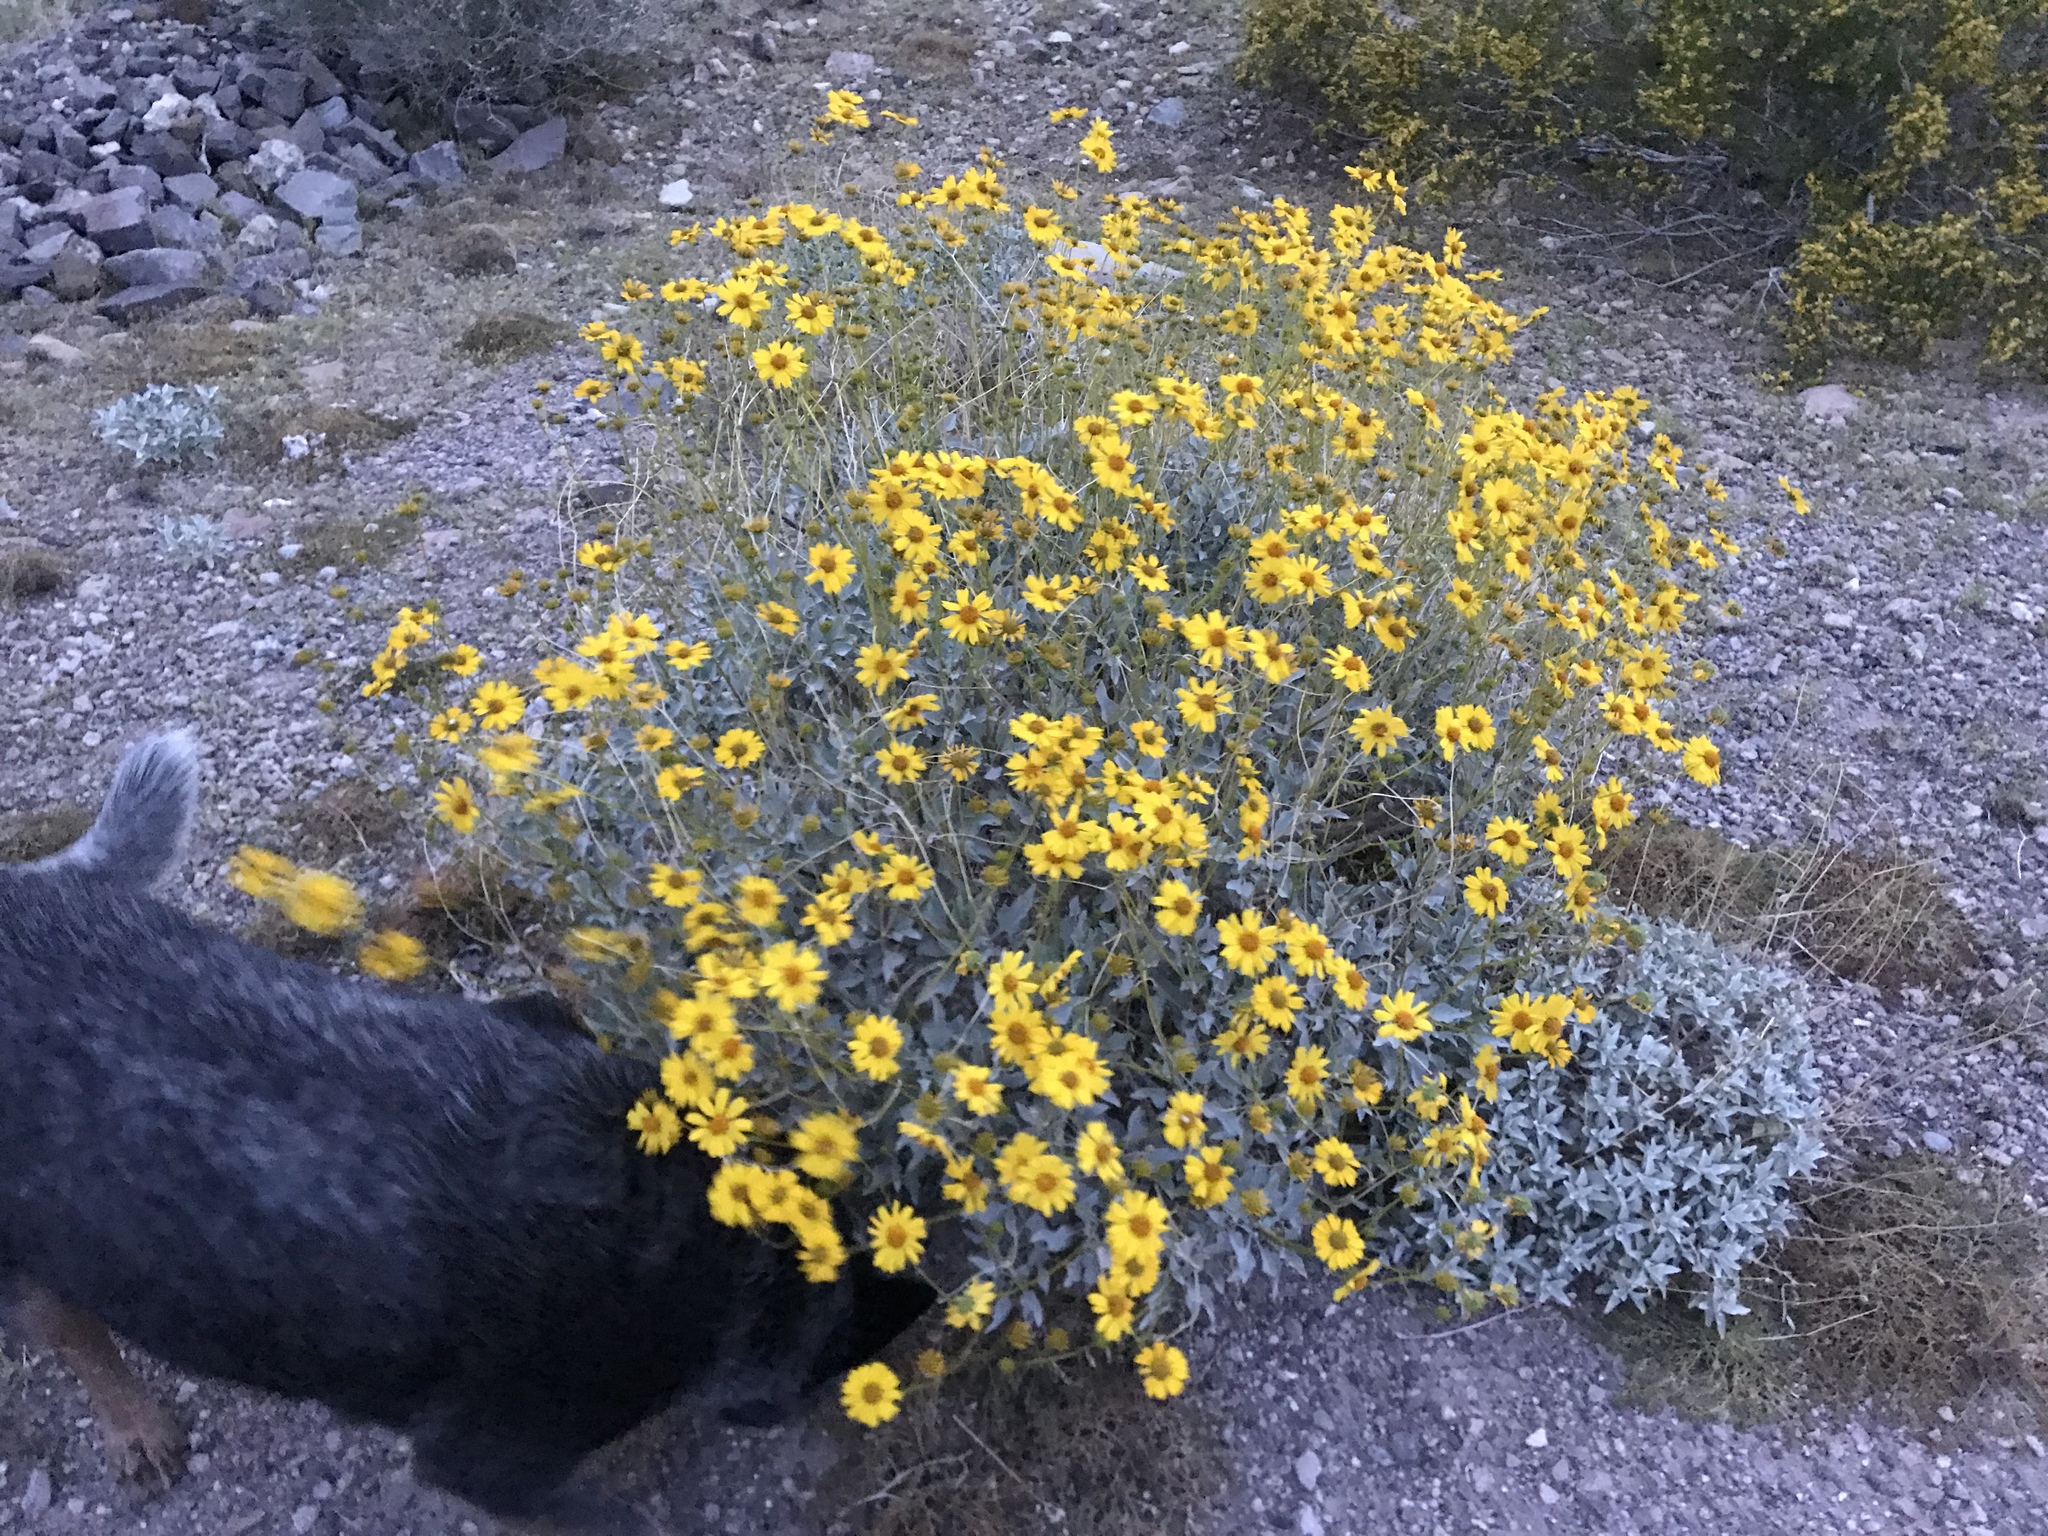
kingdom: Plantae
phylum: Tracheophyta
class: Magnoliopsida
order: Asterales
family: Asteraceae
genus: Encelia
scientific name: Encelia farinosa
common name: Brittlebush
